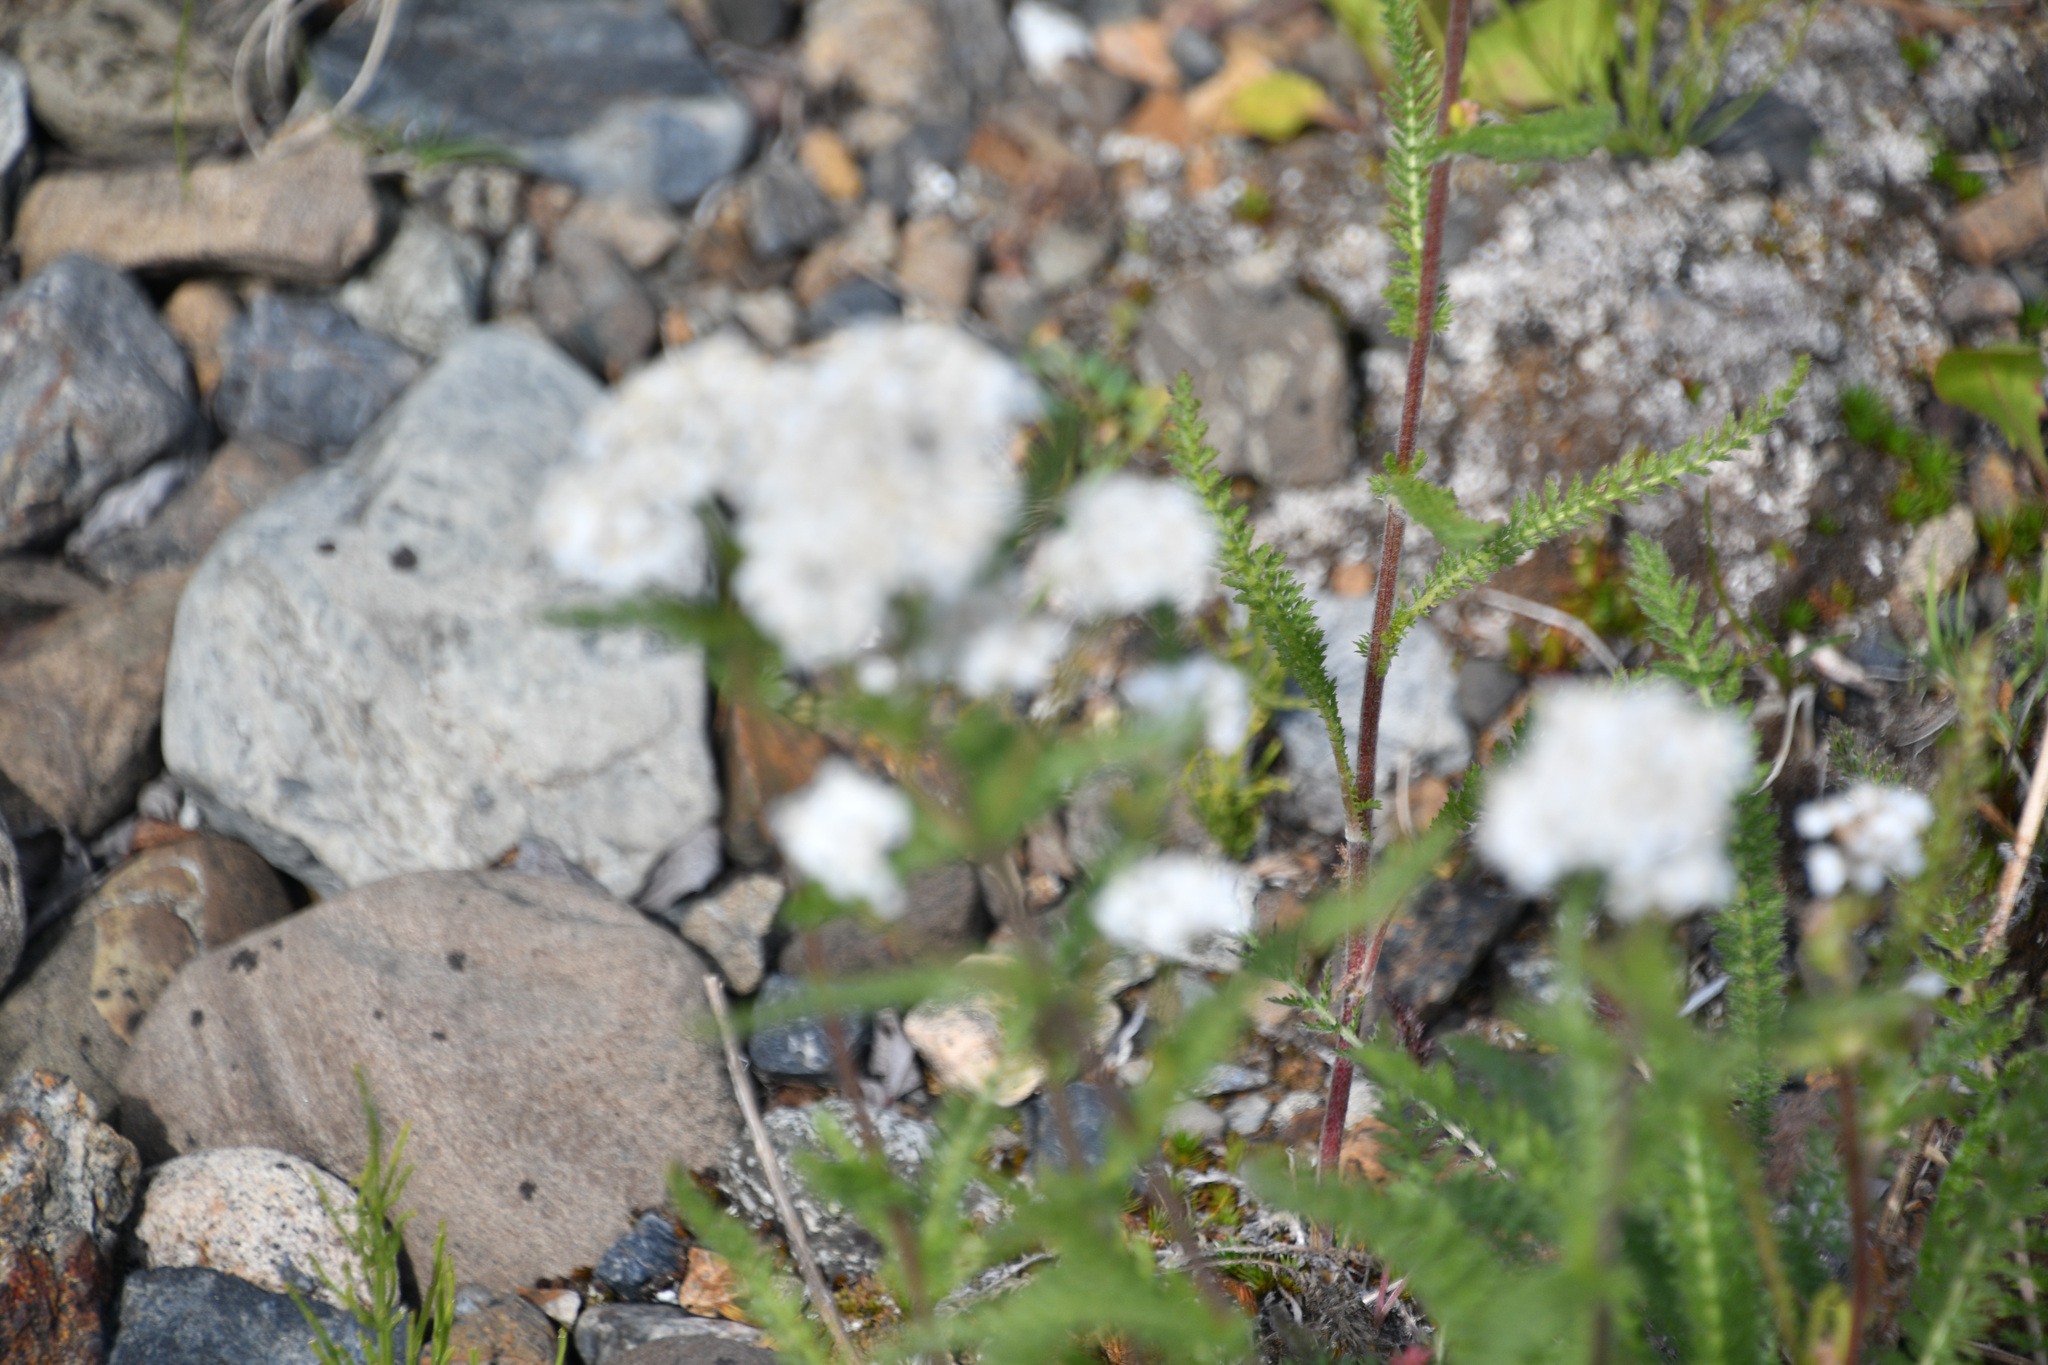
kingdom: Plantae
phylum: Tracheophyta
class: Magnoliopsida
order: Asterales
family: Asteraceae
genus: Achillea
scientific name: Achillea millefolium
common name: Yarrow
